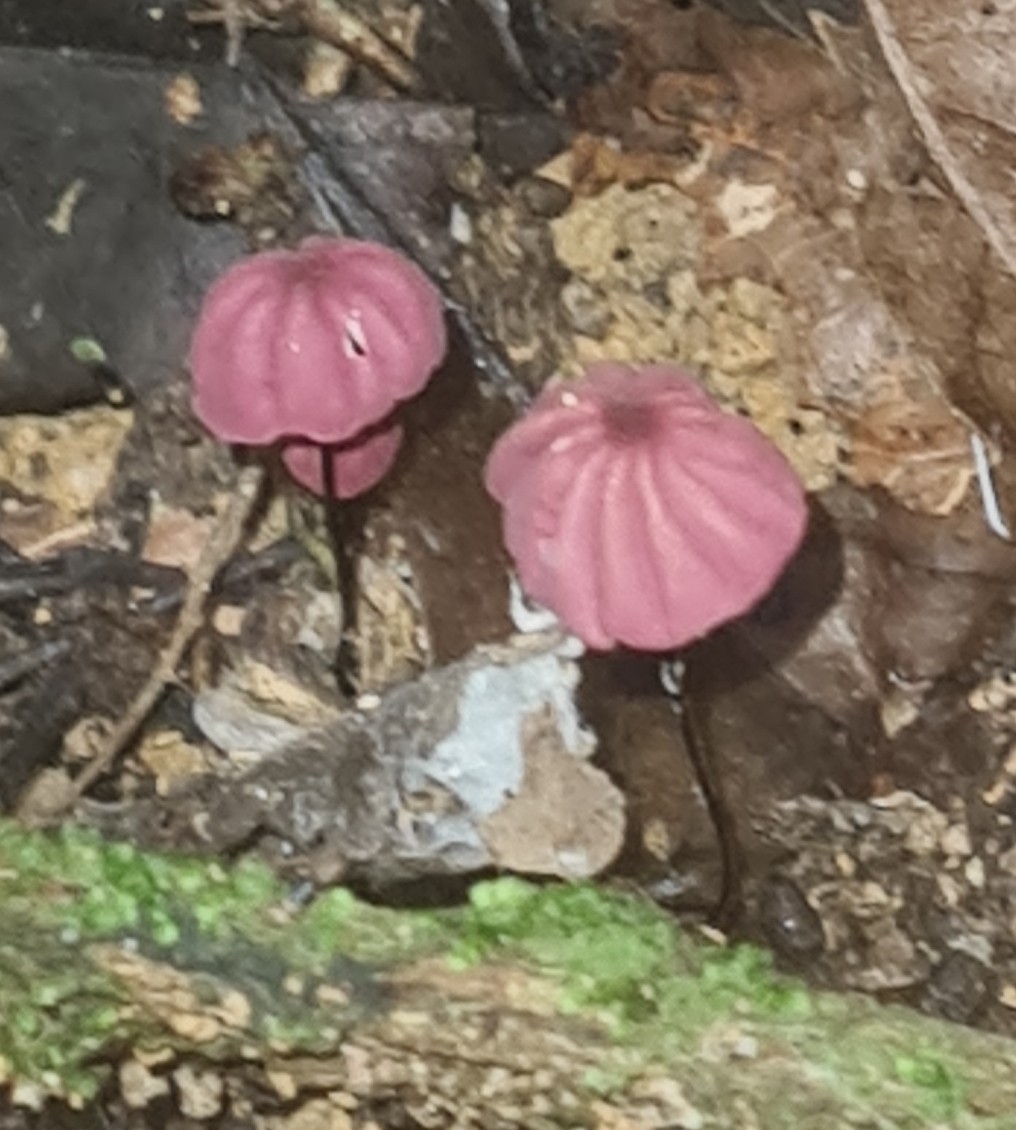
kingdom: Fungi
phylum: Basidiomycota
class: Agaricomycetes
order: Agaricales
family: Marasmiaceae
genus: Marasmius
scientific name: Marasmius haematocephalus
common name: Purple pinwheel
